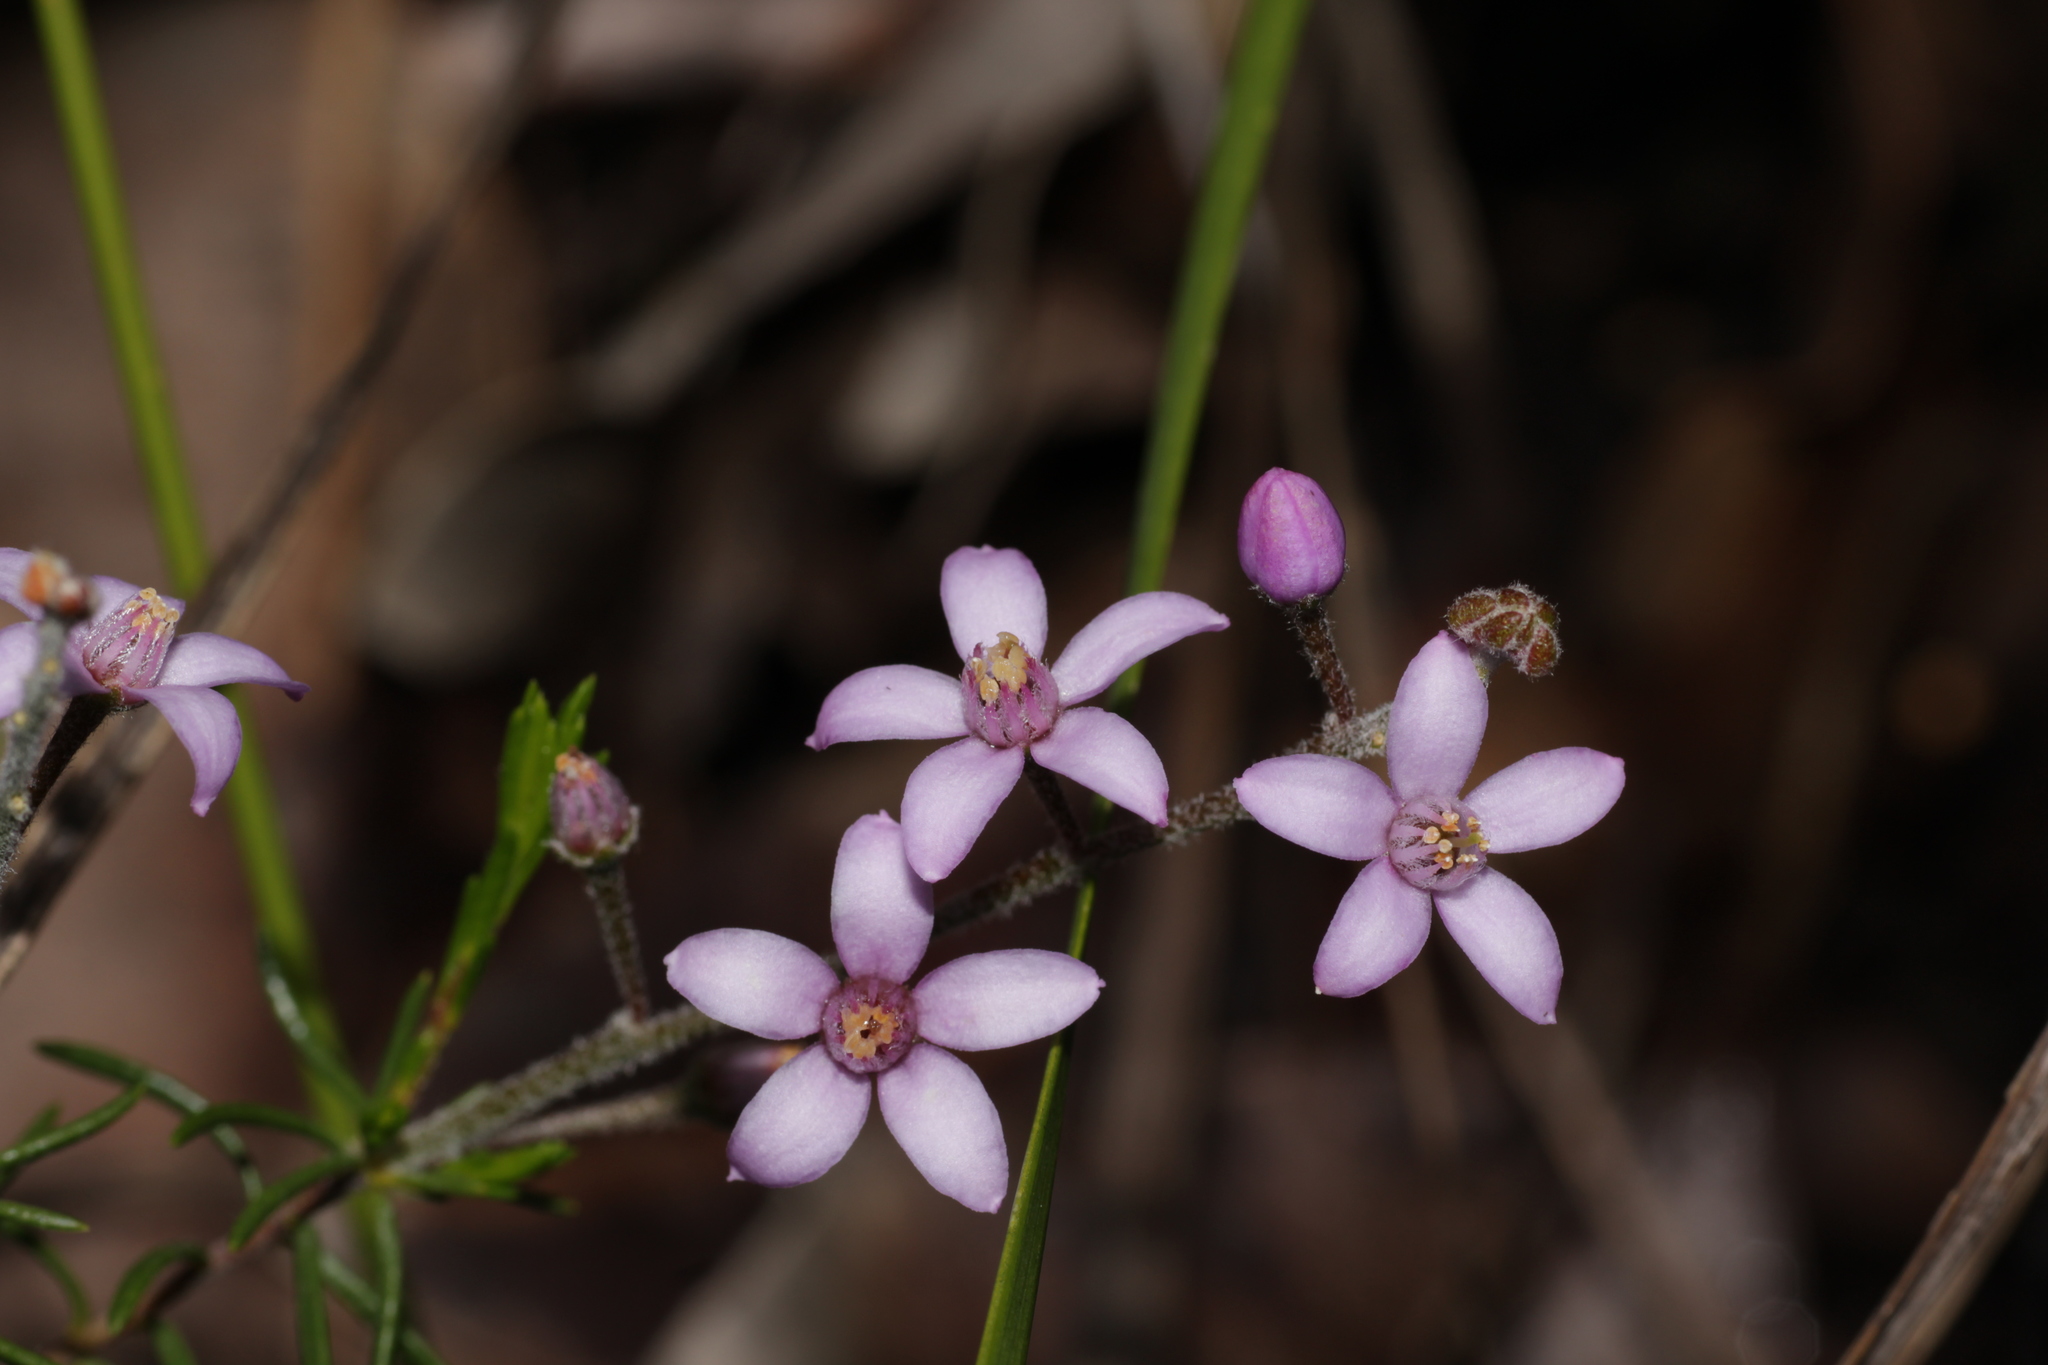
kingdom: Plantae
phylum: Tracheophyta
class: Magnoliopsida
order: Sapindales
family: Rutaceae
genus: Philotheca
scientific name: Philotheca spicata
